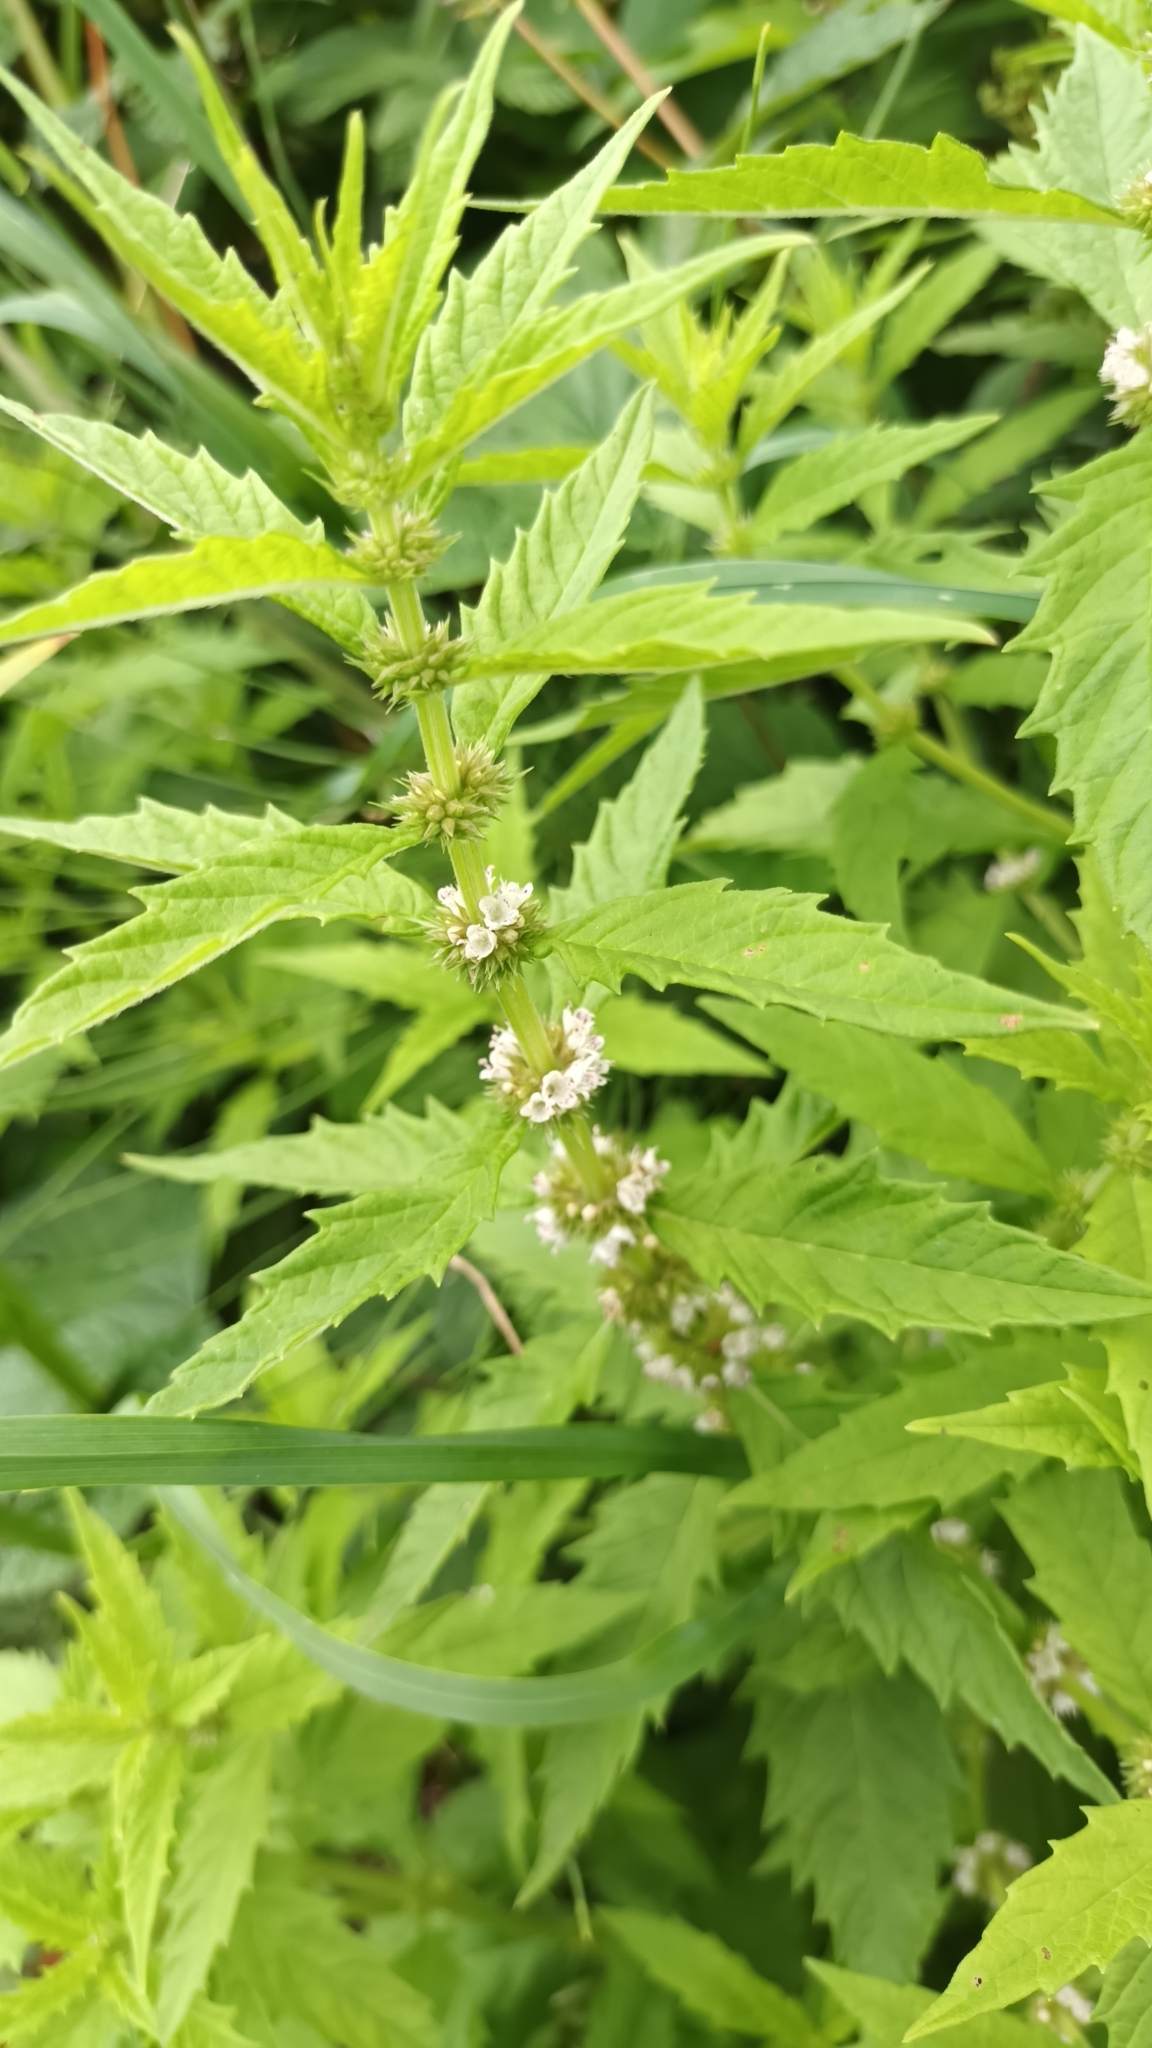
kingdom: Plantae
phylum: Tracheophyta
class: Magnoliopsida
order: Lamiales
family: Lamiaceae
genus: Lycopus
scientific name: Lycopus europaeus
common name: European bugleweed
